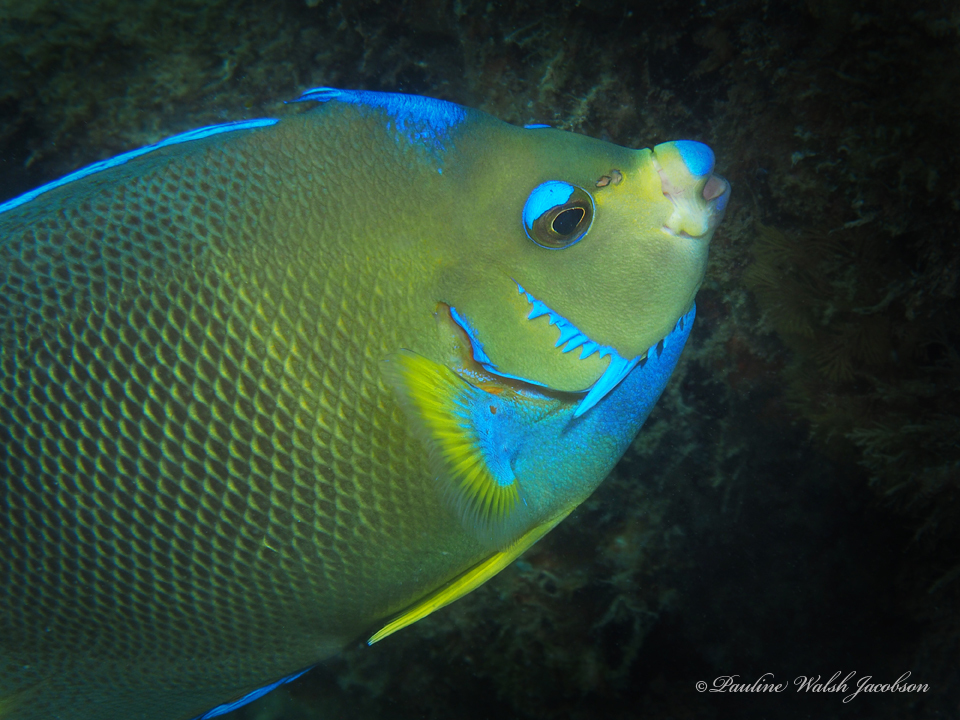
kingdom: Animalia
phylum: Chordata
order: Perciformes
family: Pomacanthidae
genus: Holacanthus
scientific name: Holacanthus ciliaris
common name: Queen angelfish
